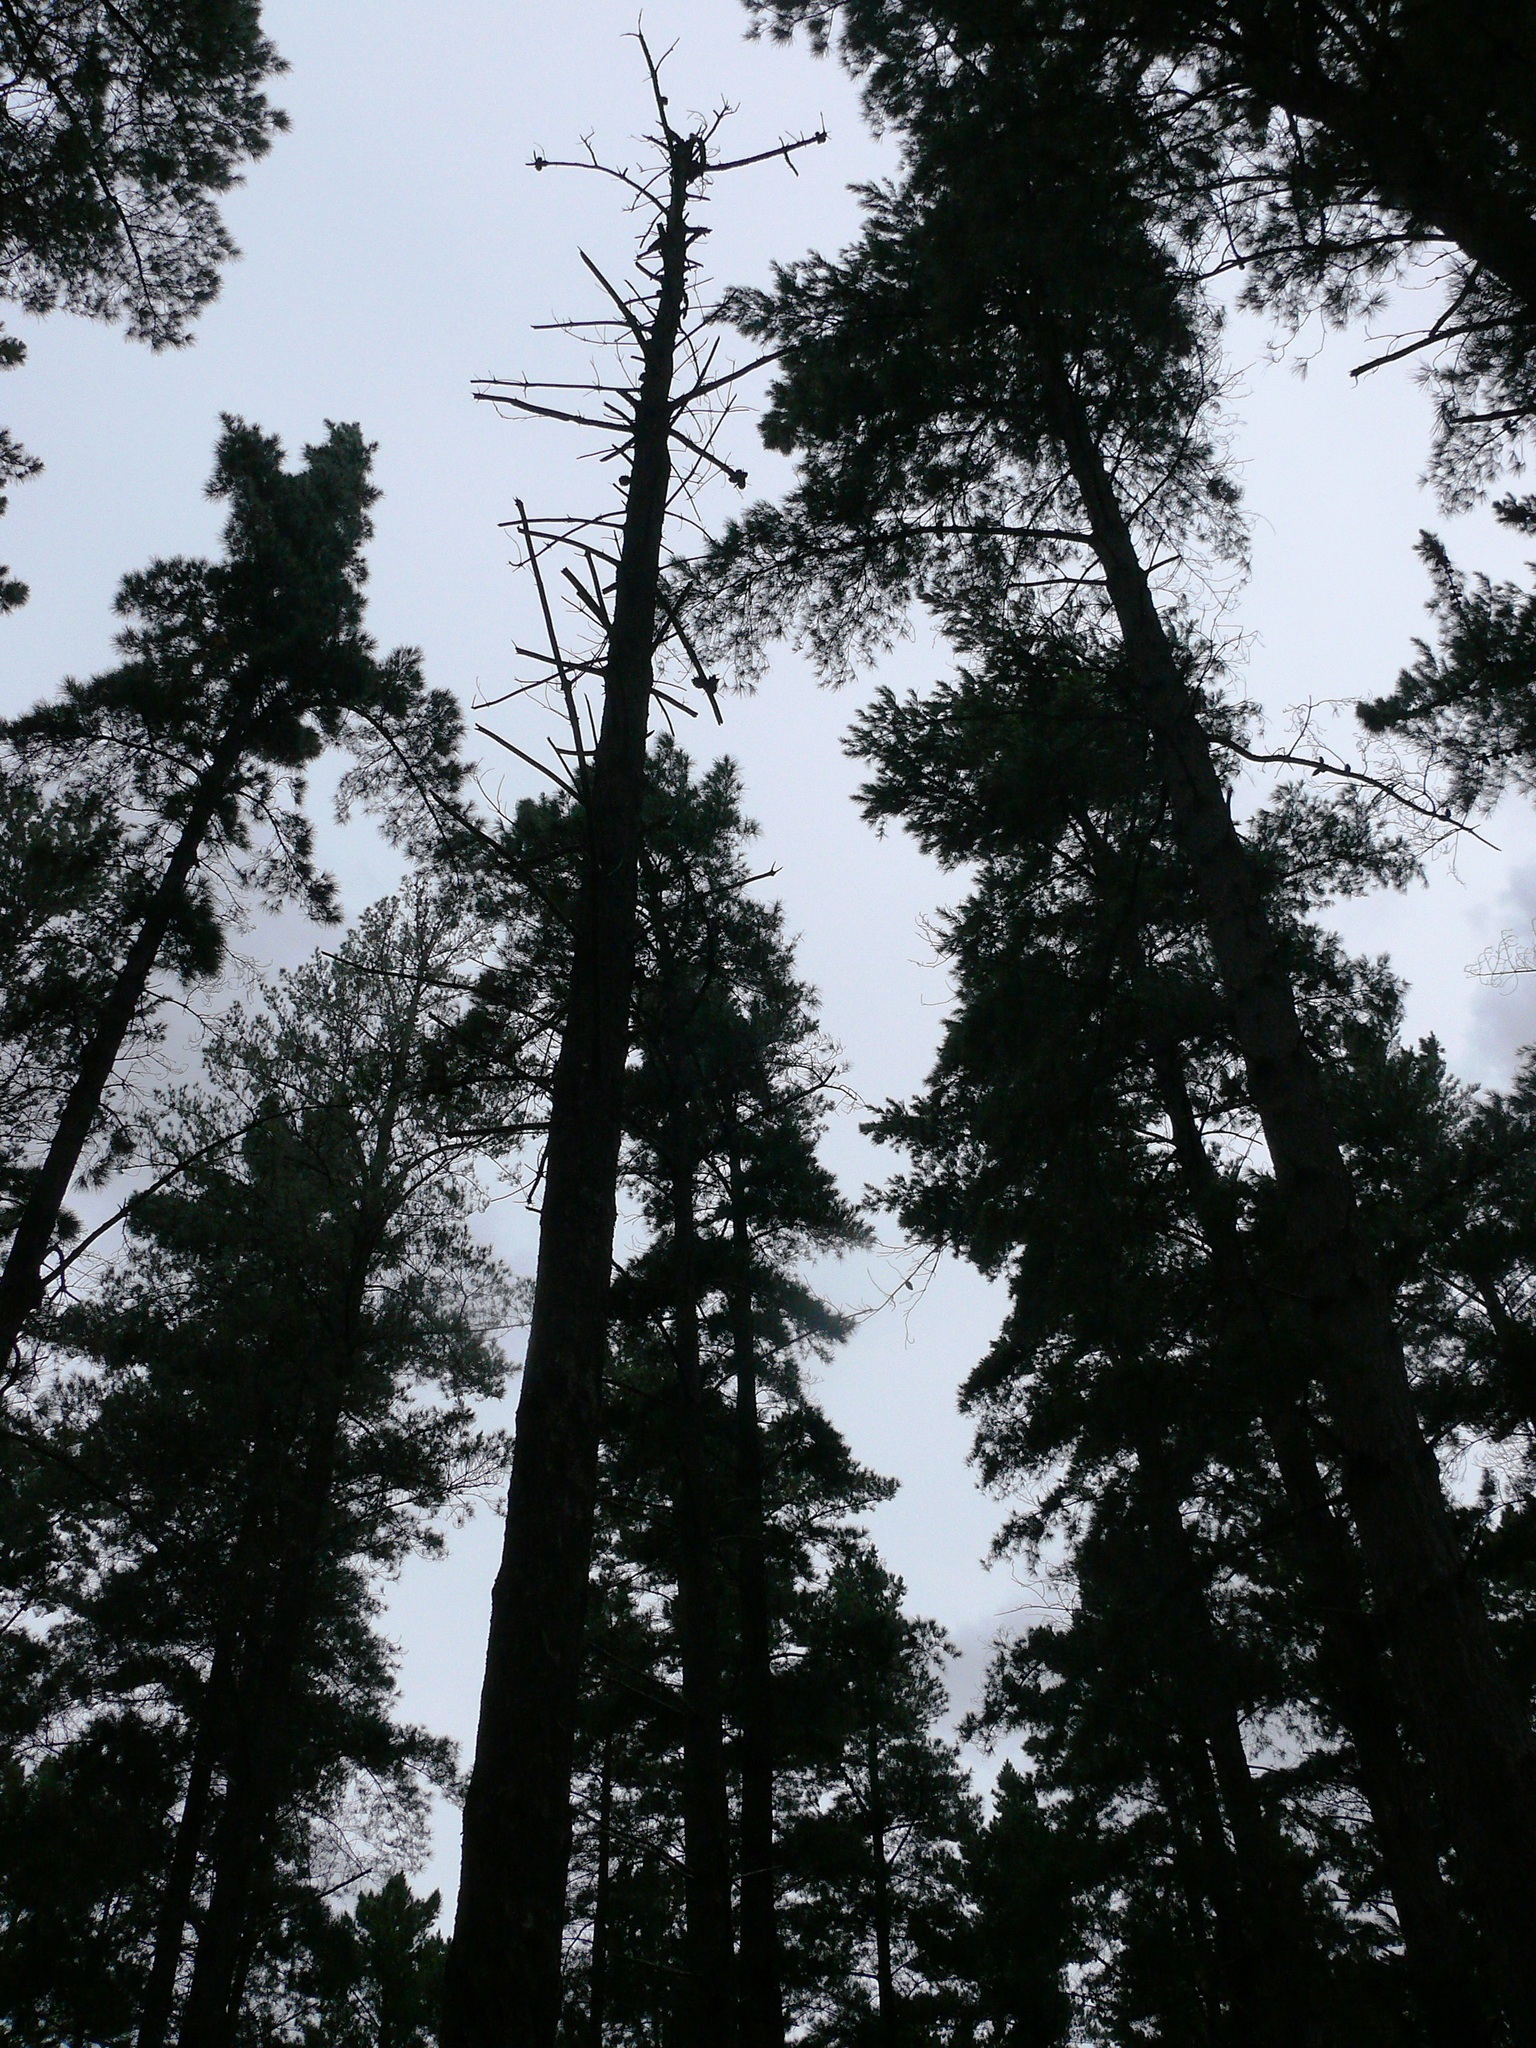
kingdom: Plantae
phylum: Tracheophyta
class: Pinopsida
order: Pinales
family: Pinaceae
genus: Pinus
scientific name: Pinus radiata
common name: Monterey pine
